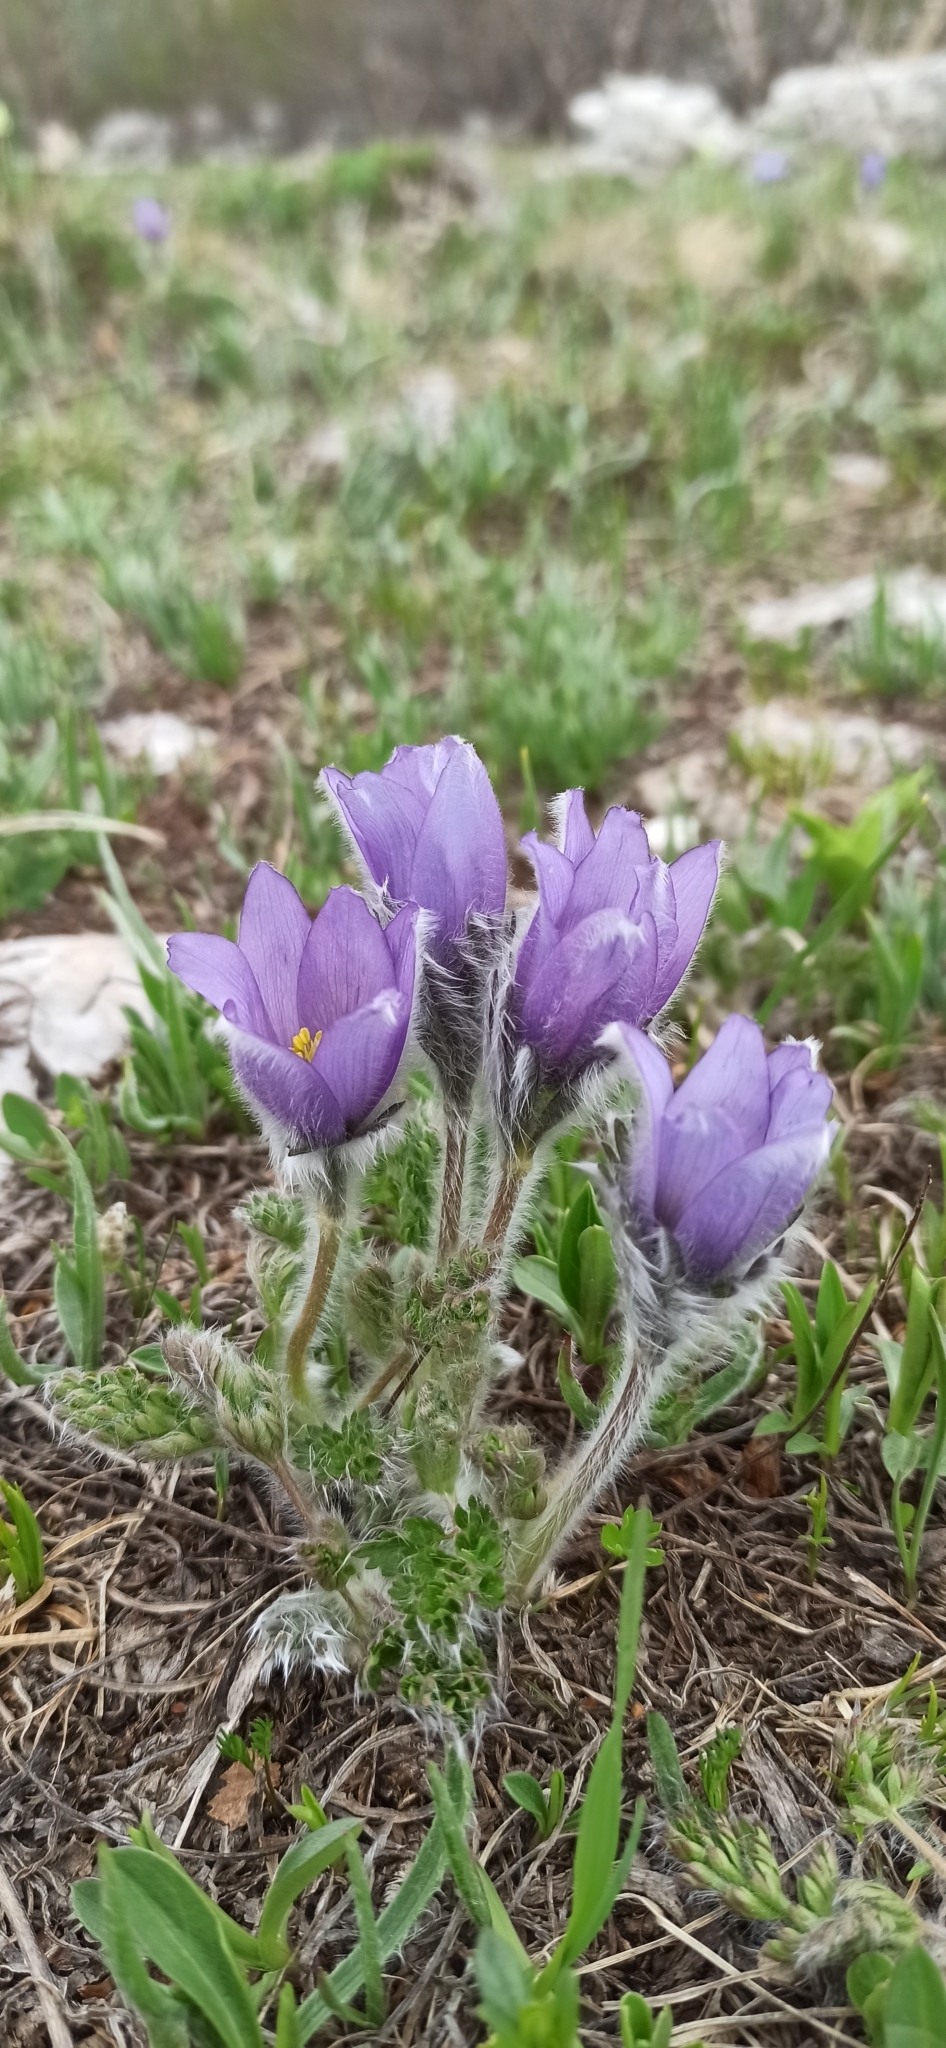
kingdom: Plantae
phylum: Tracheophyta
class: Magnoliopsida
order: Ranunculales
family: Ranunculaceae
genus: Pulsatilla
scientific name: Pulsatilla violacea
